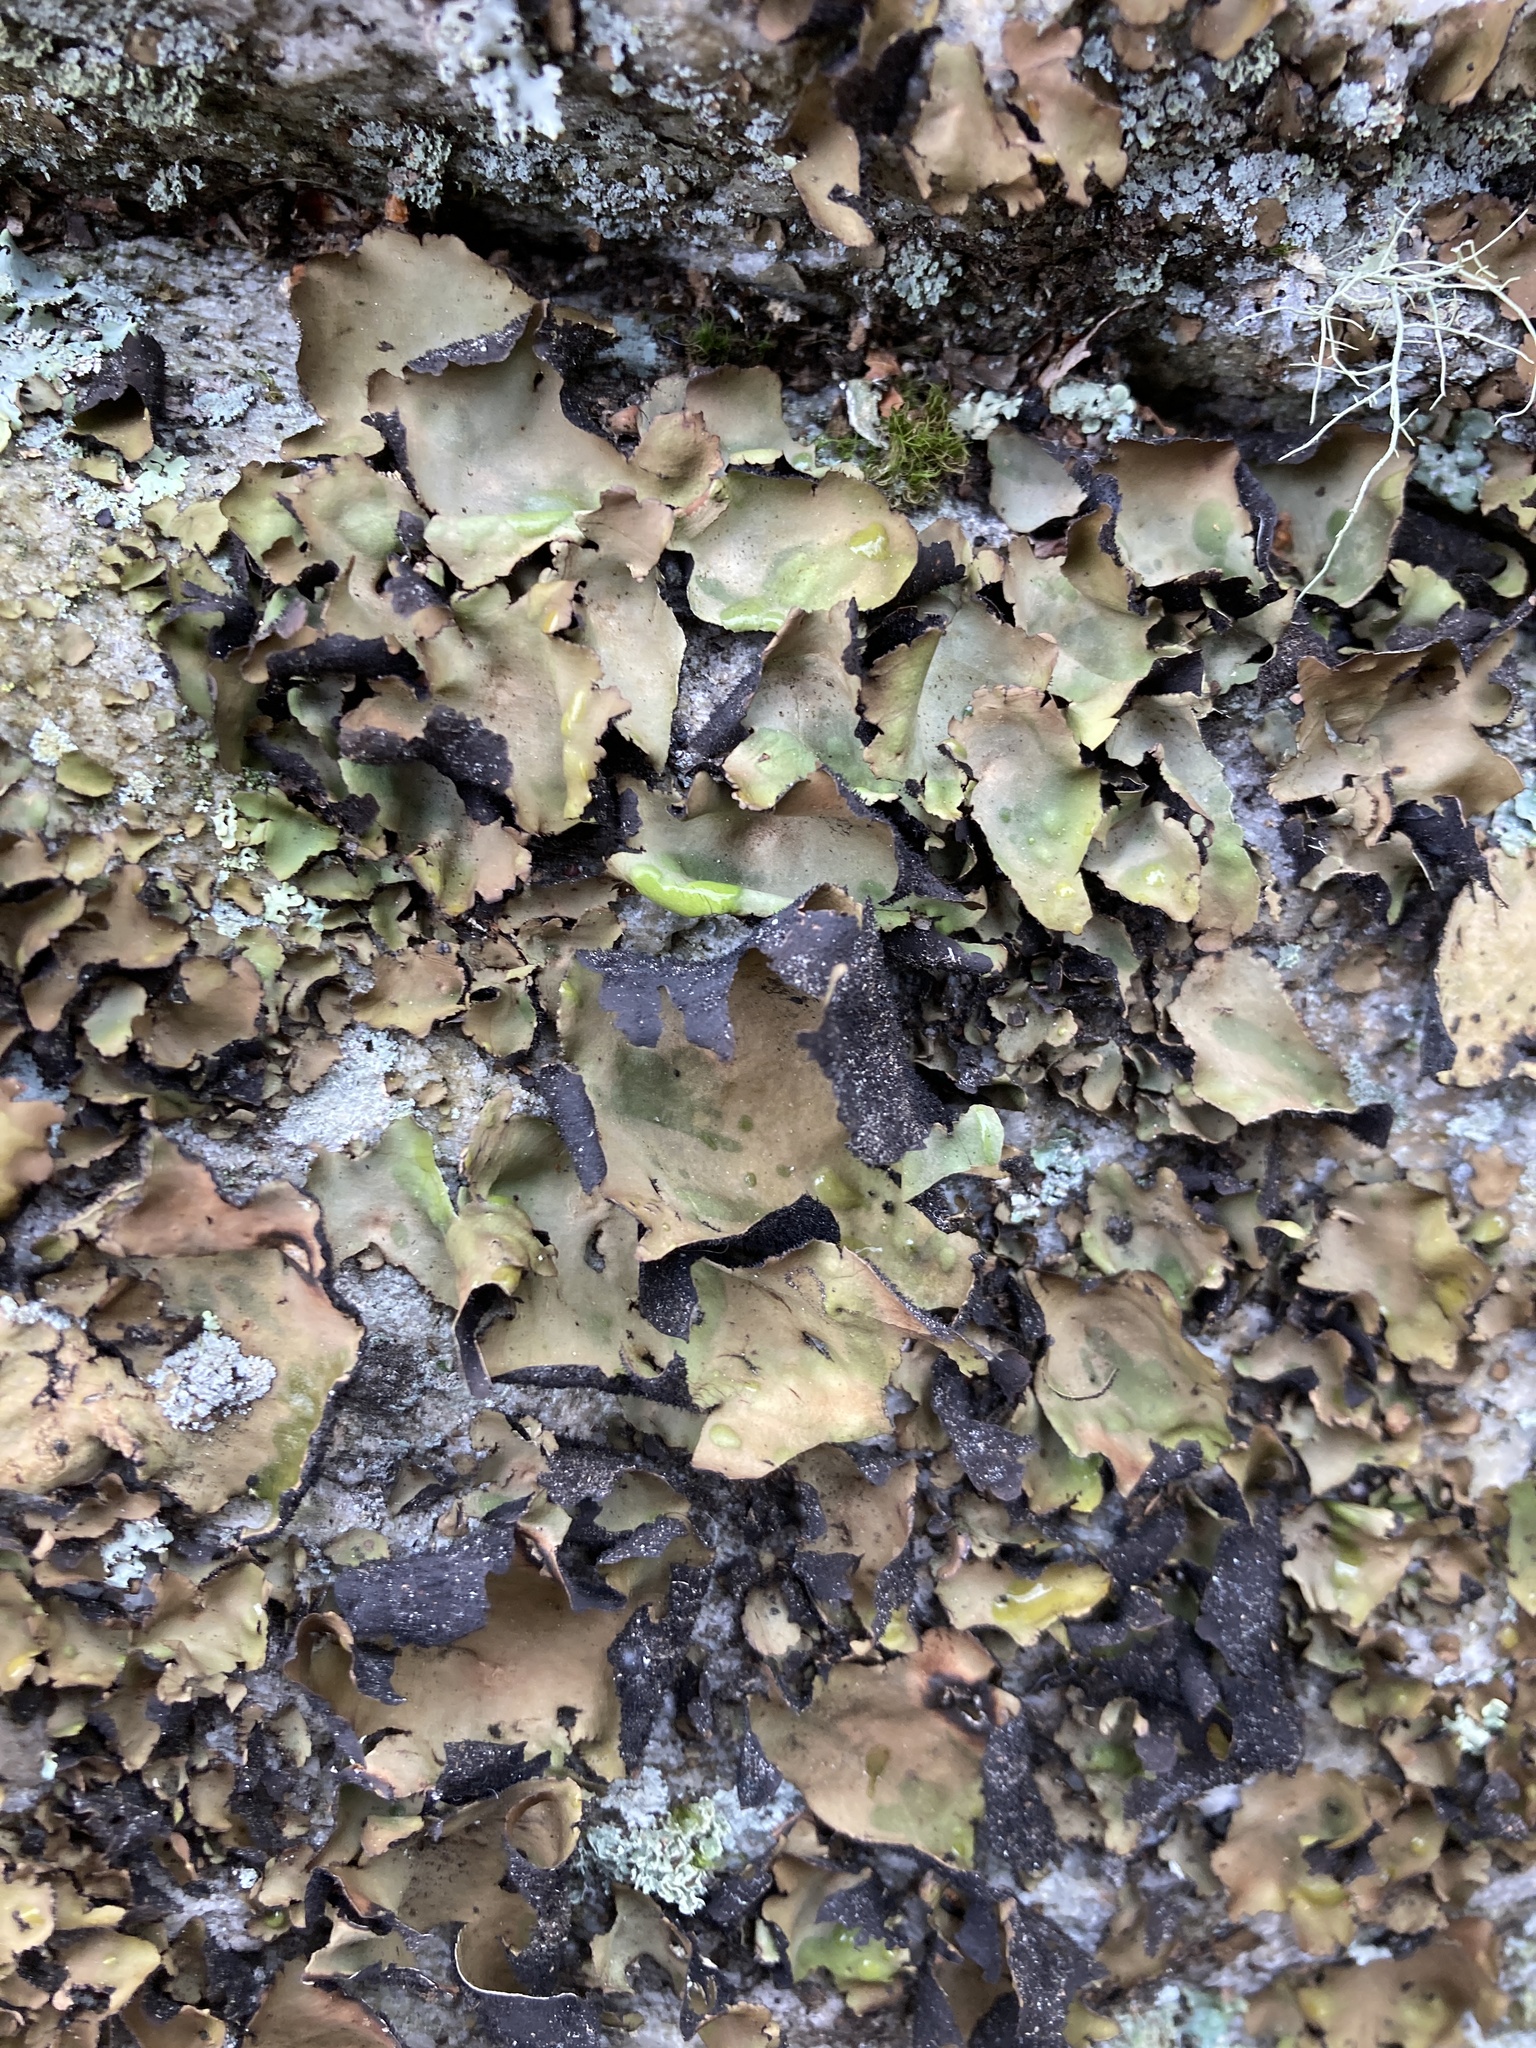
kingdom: Fungi
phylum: Ascomycota
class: Lecanoromycetes
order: Umbilicariales
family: Umbilicariaceae
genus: Umbilicaria
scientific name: Umbilicaria mammulata
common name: Smooth rock tripe
